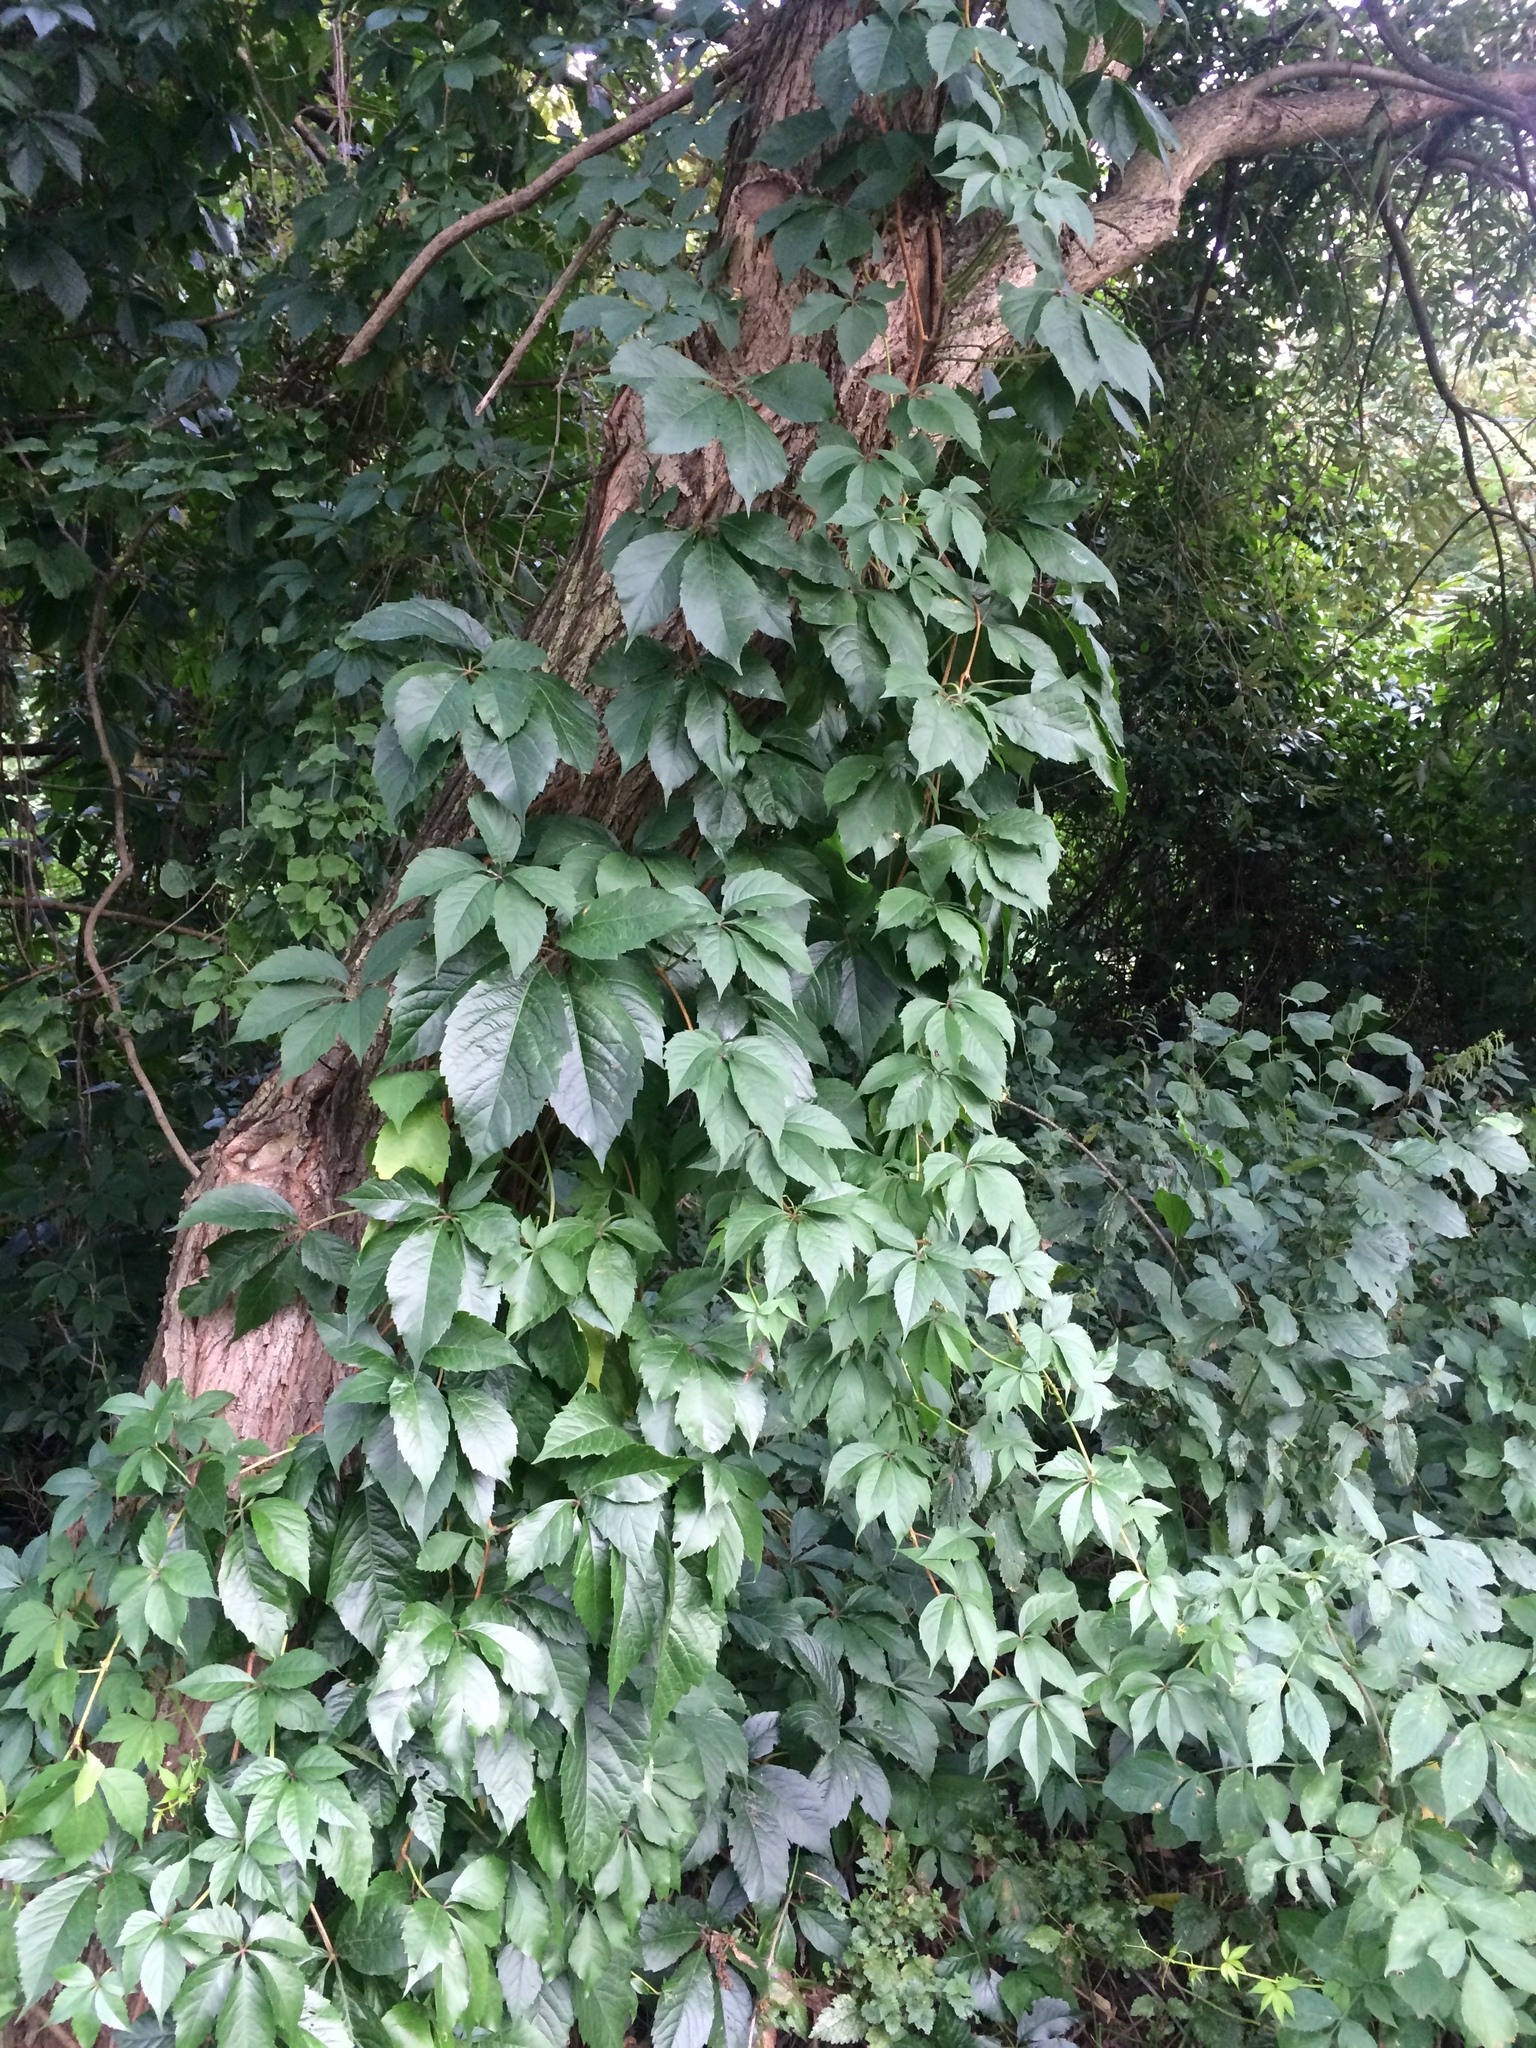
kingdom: Plantae
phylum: Tracheophyta
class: Magnoliopsida
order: Vitales
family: Vitaceae
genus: Parthenocissus
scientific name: Parthenocissus quinquefolia
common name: Virginia-creeper
